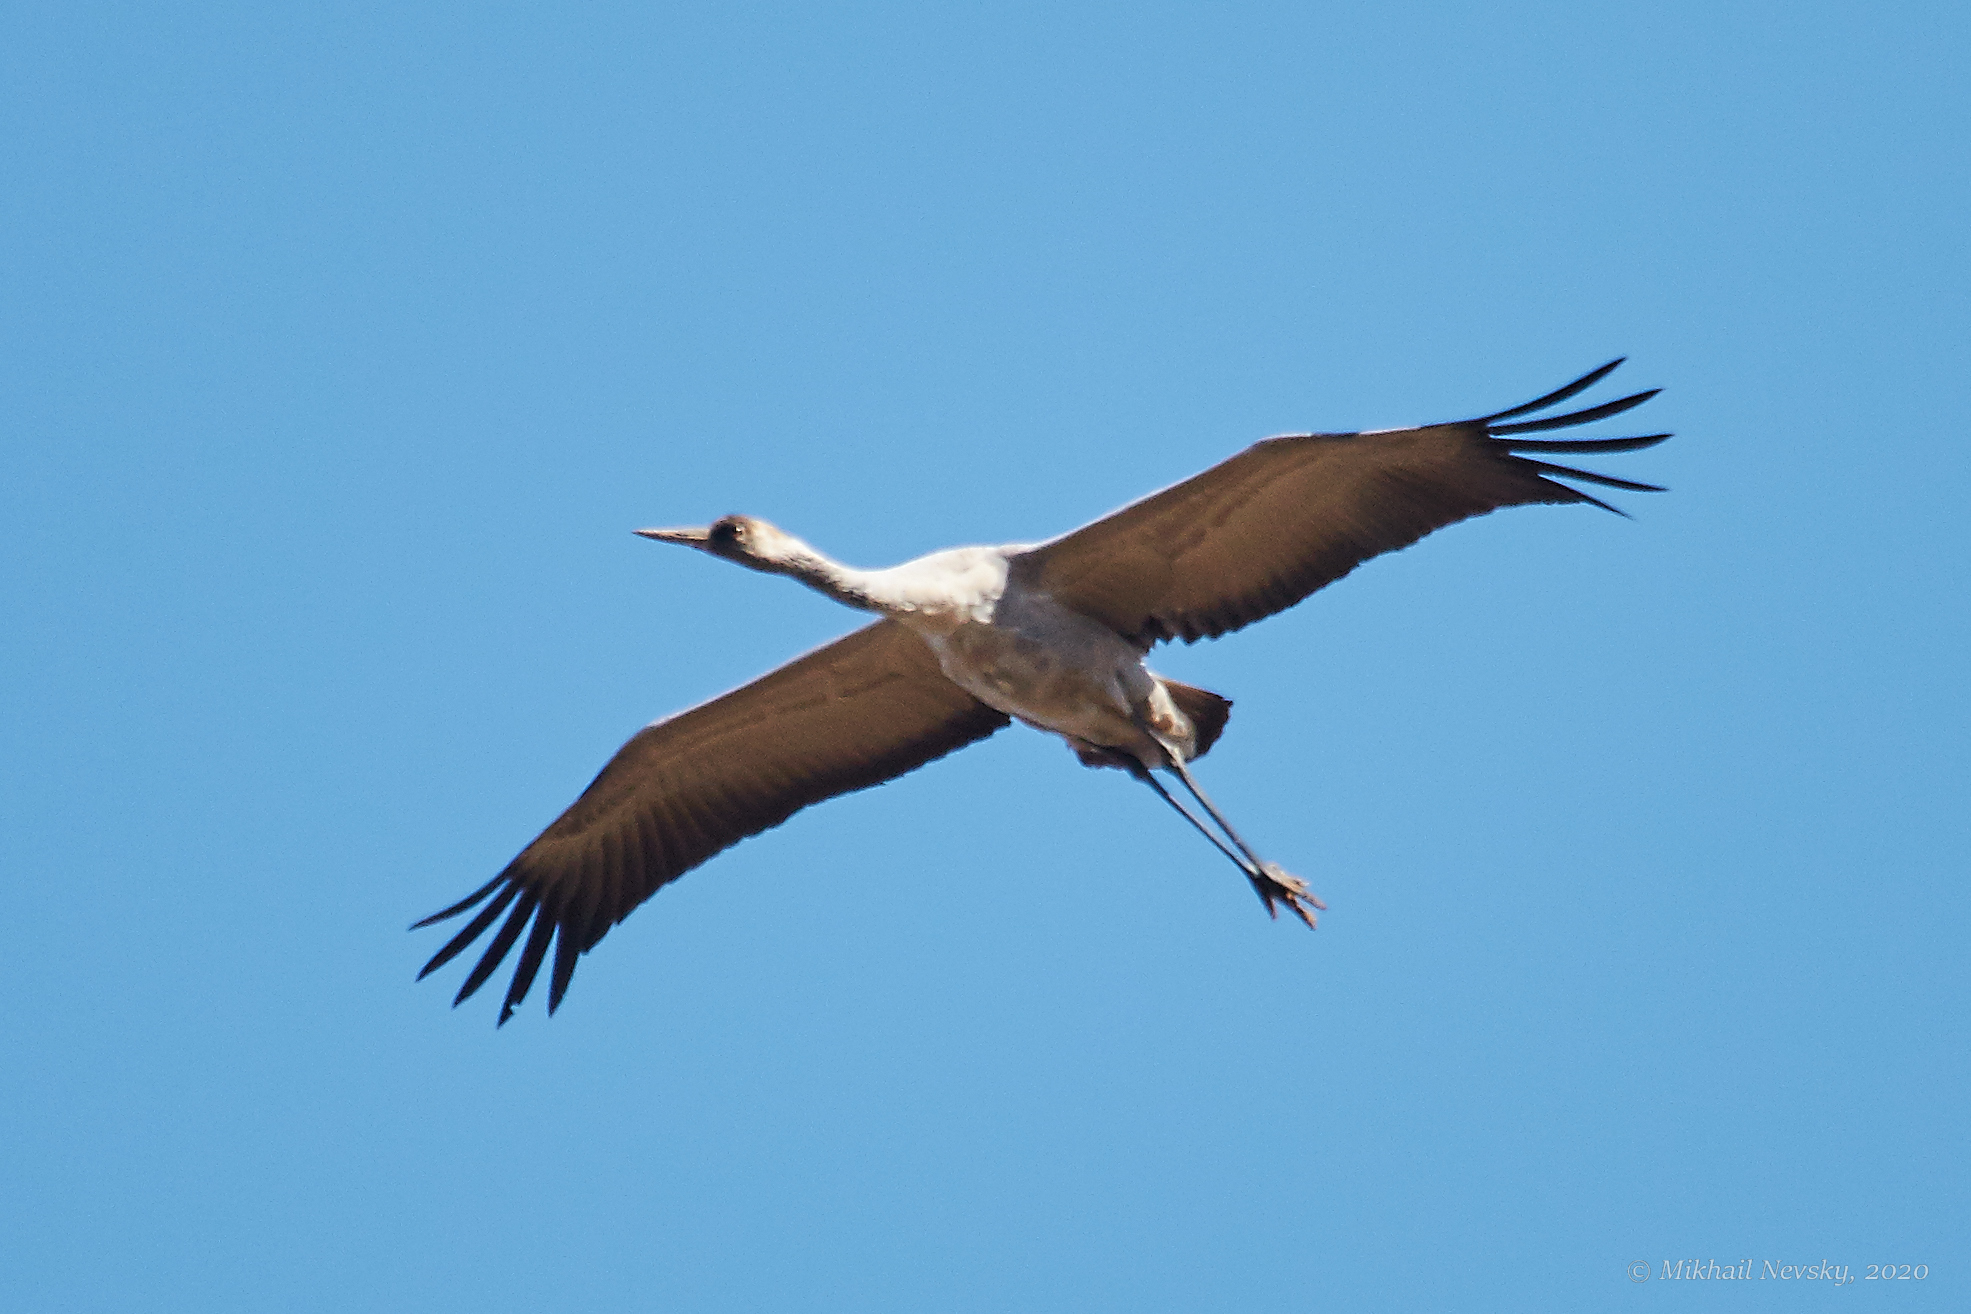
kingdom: Animalia
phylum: Chordata
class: Aves
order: Gruiformes
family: Gruidae
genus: Grus
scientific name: Grus grus
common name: Common crane
